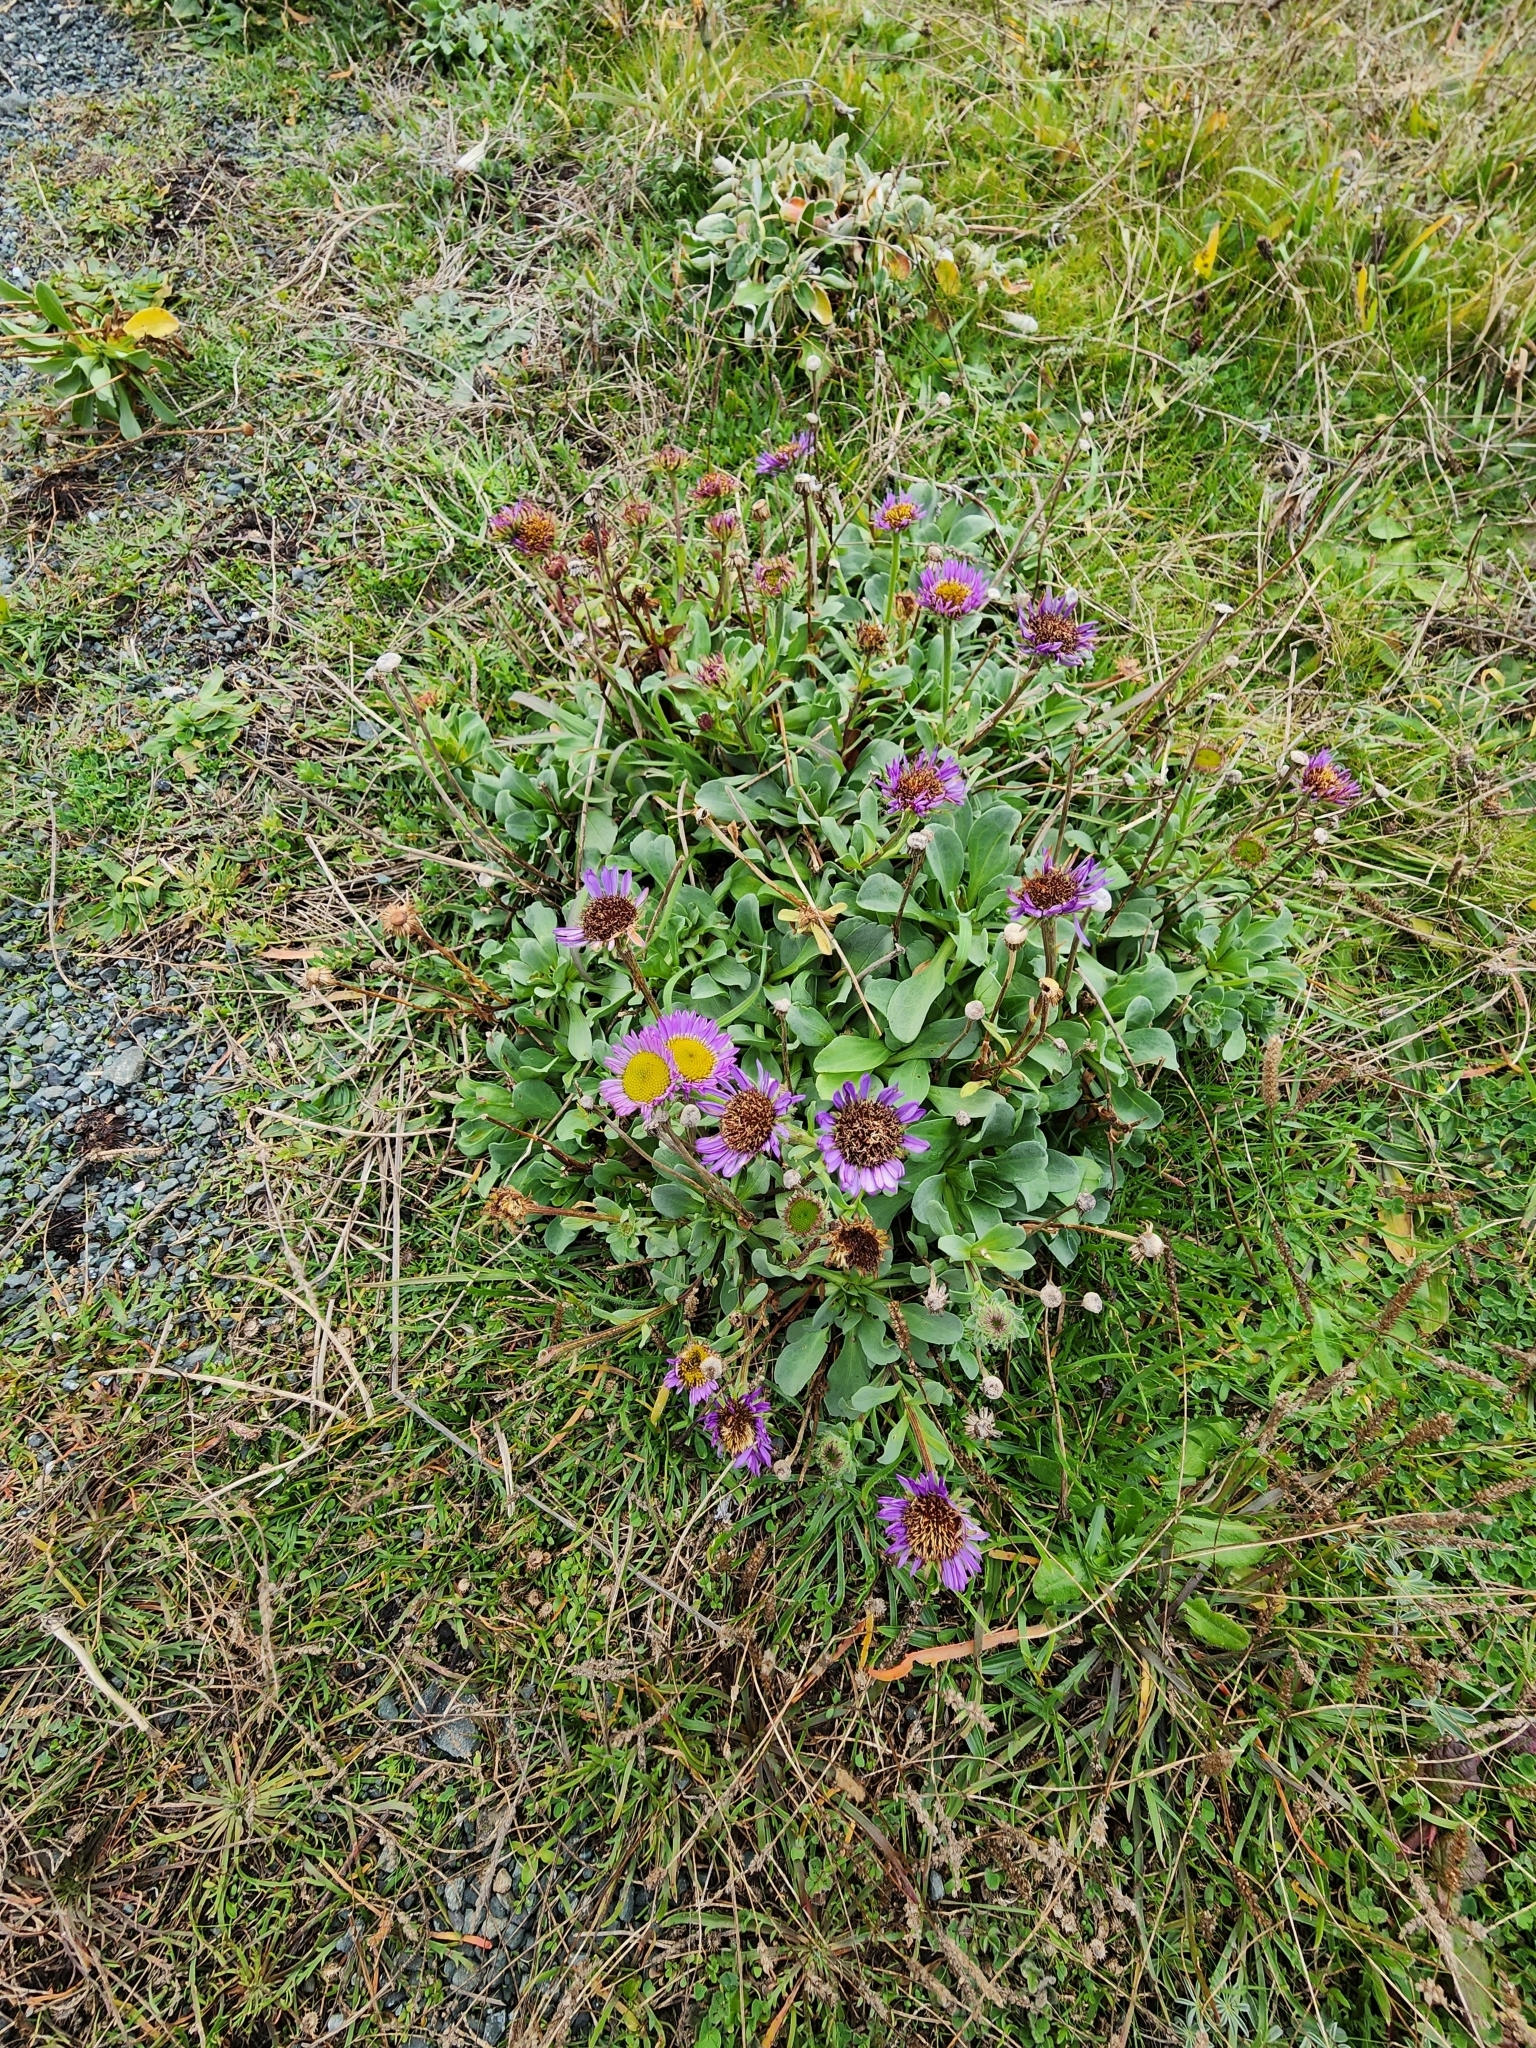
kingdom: Plantae
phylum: Tracheophyta
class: Magnoliopsida
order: Asterales
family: Asteraceae
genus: Erigeron
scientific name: Erigeron glaucus
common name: Seaside daisy
